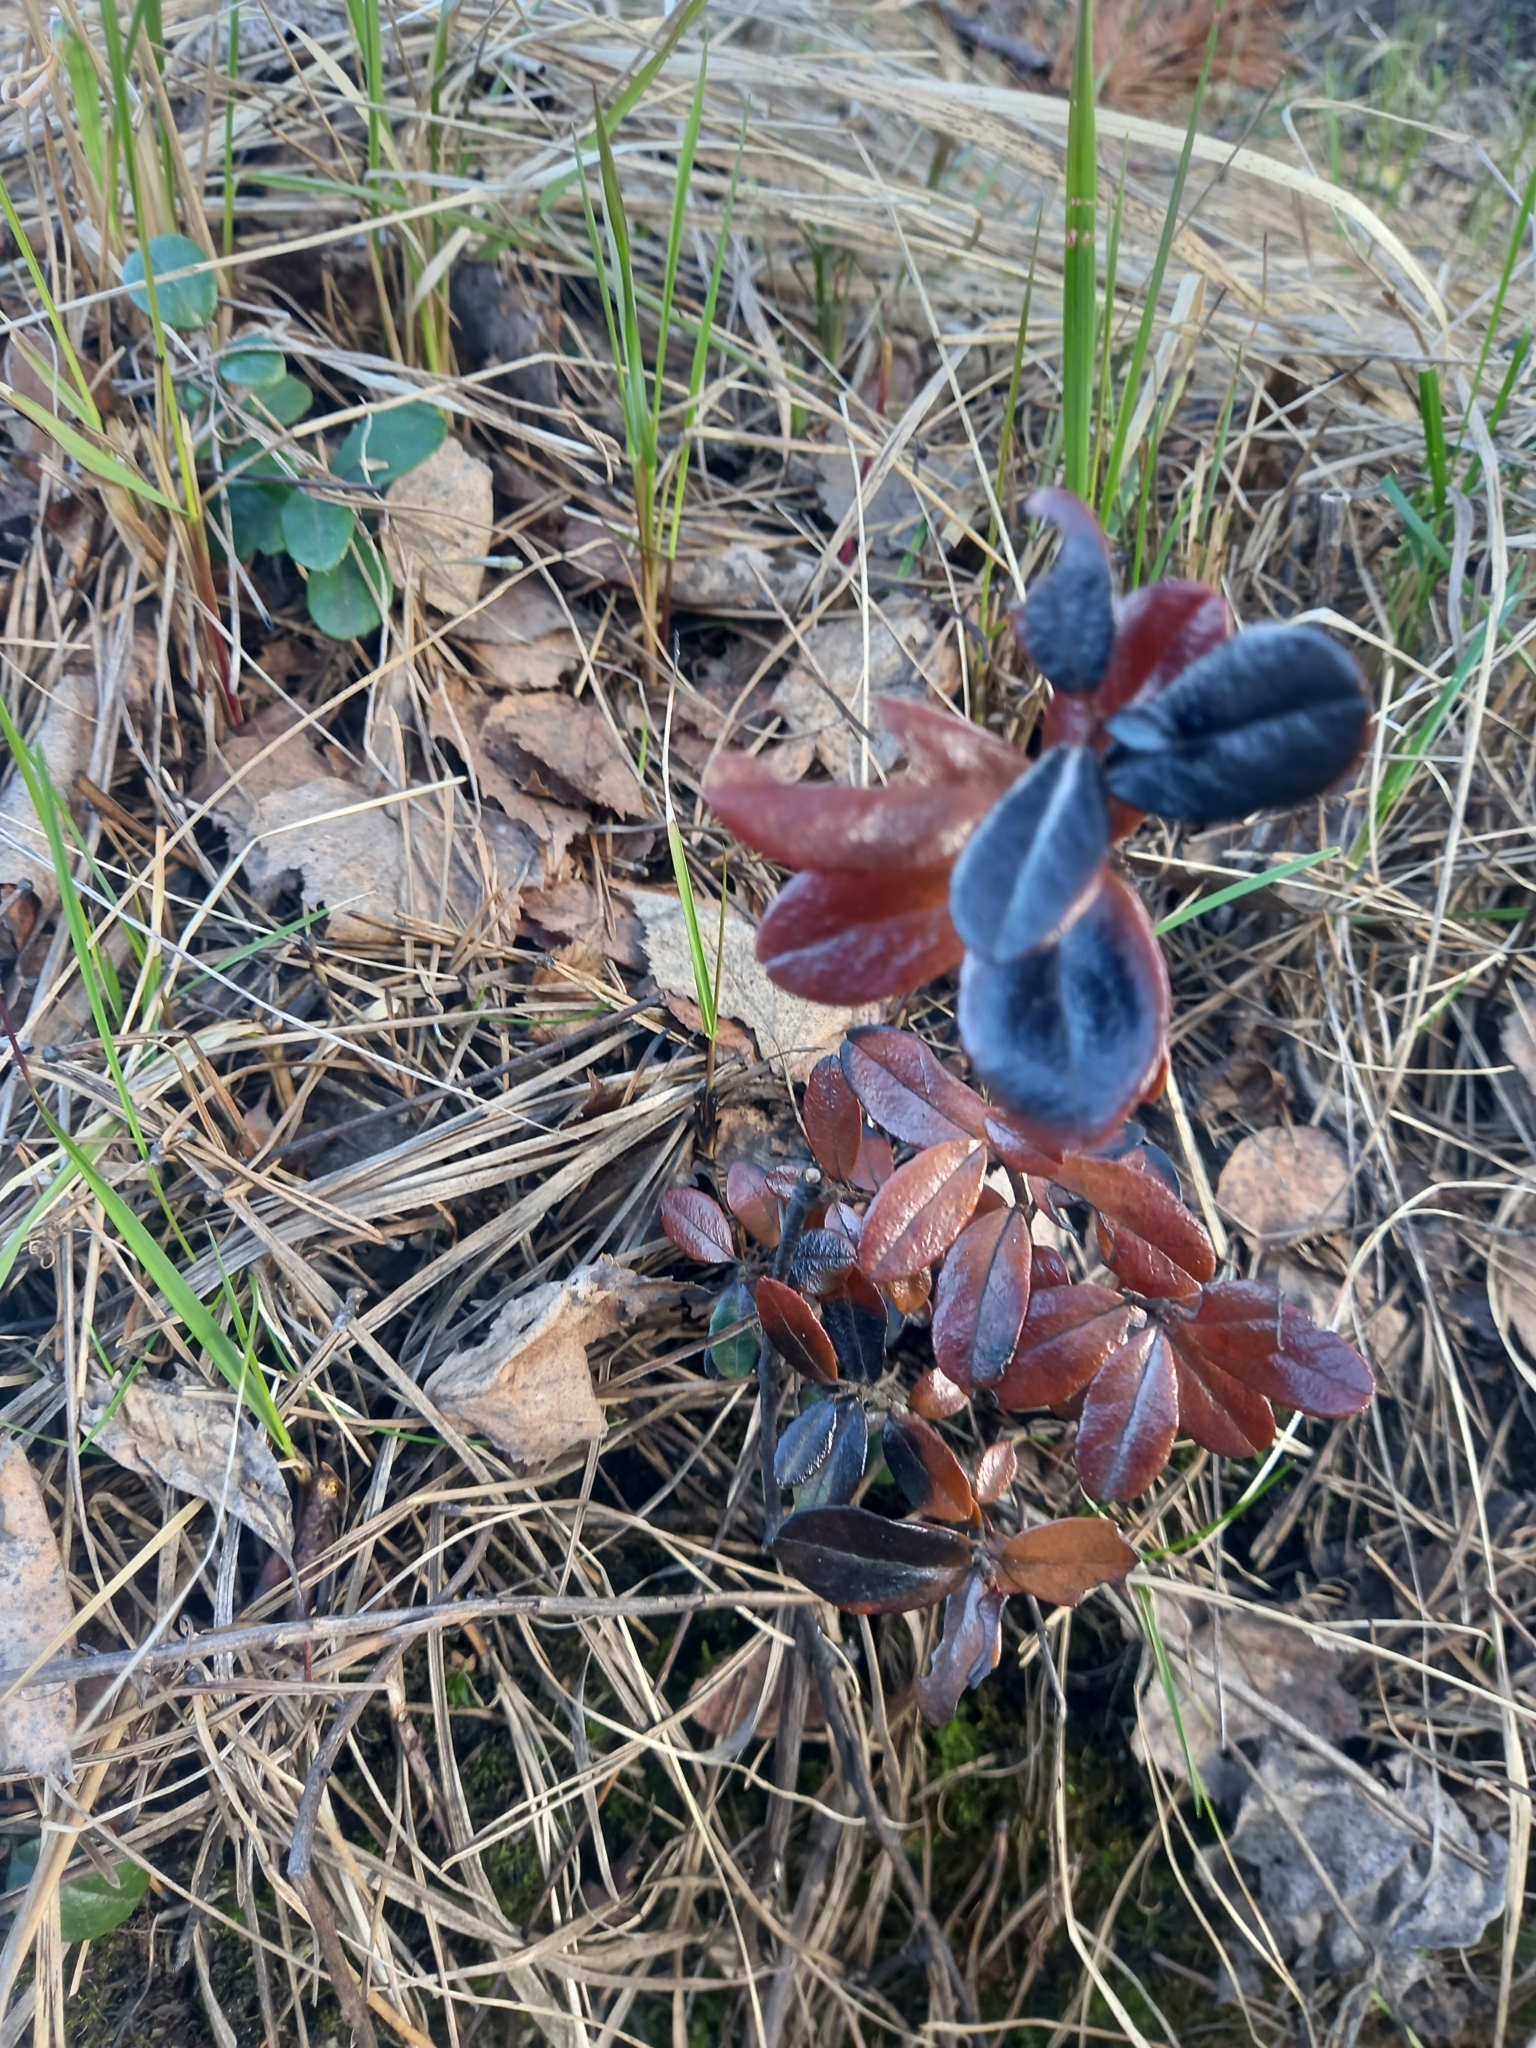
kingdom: Plantae
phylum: Tracheophyta
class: Magnoliopsida
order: Ericales
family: Ericaceae
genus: Vaccinium
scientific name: Vaccinium vitis-idaea
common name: Cowberry
